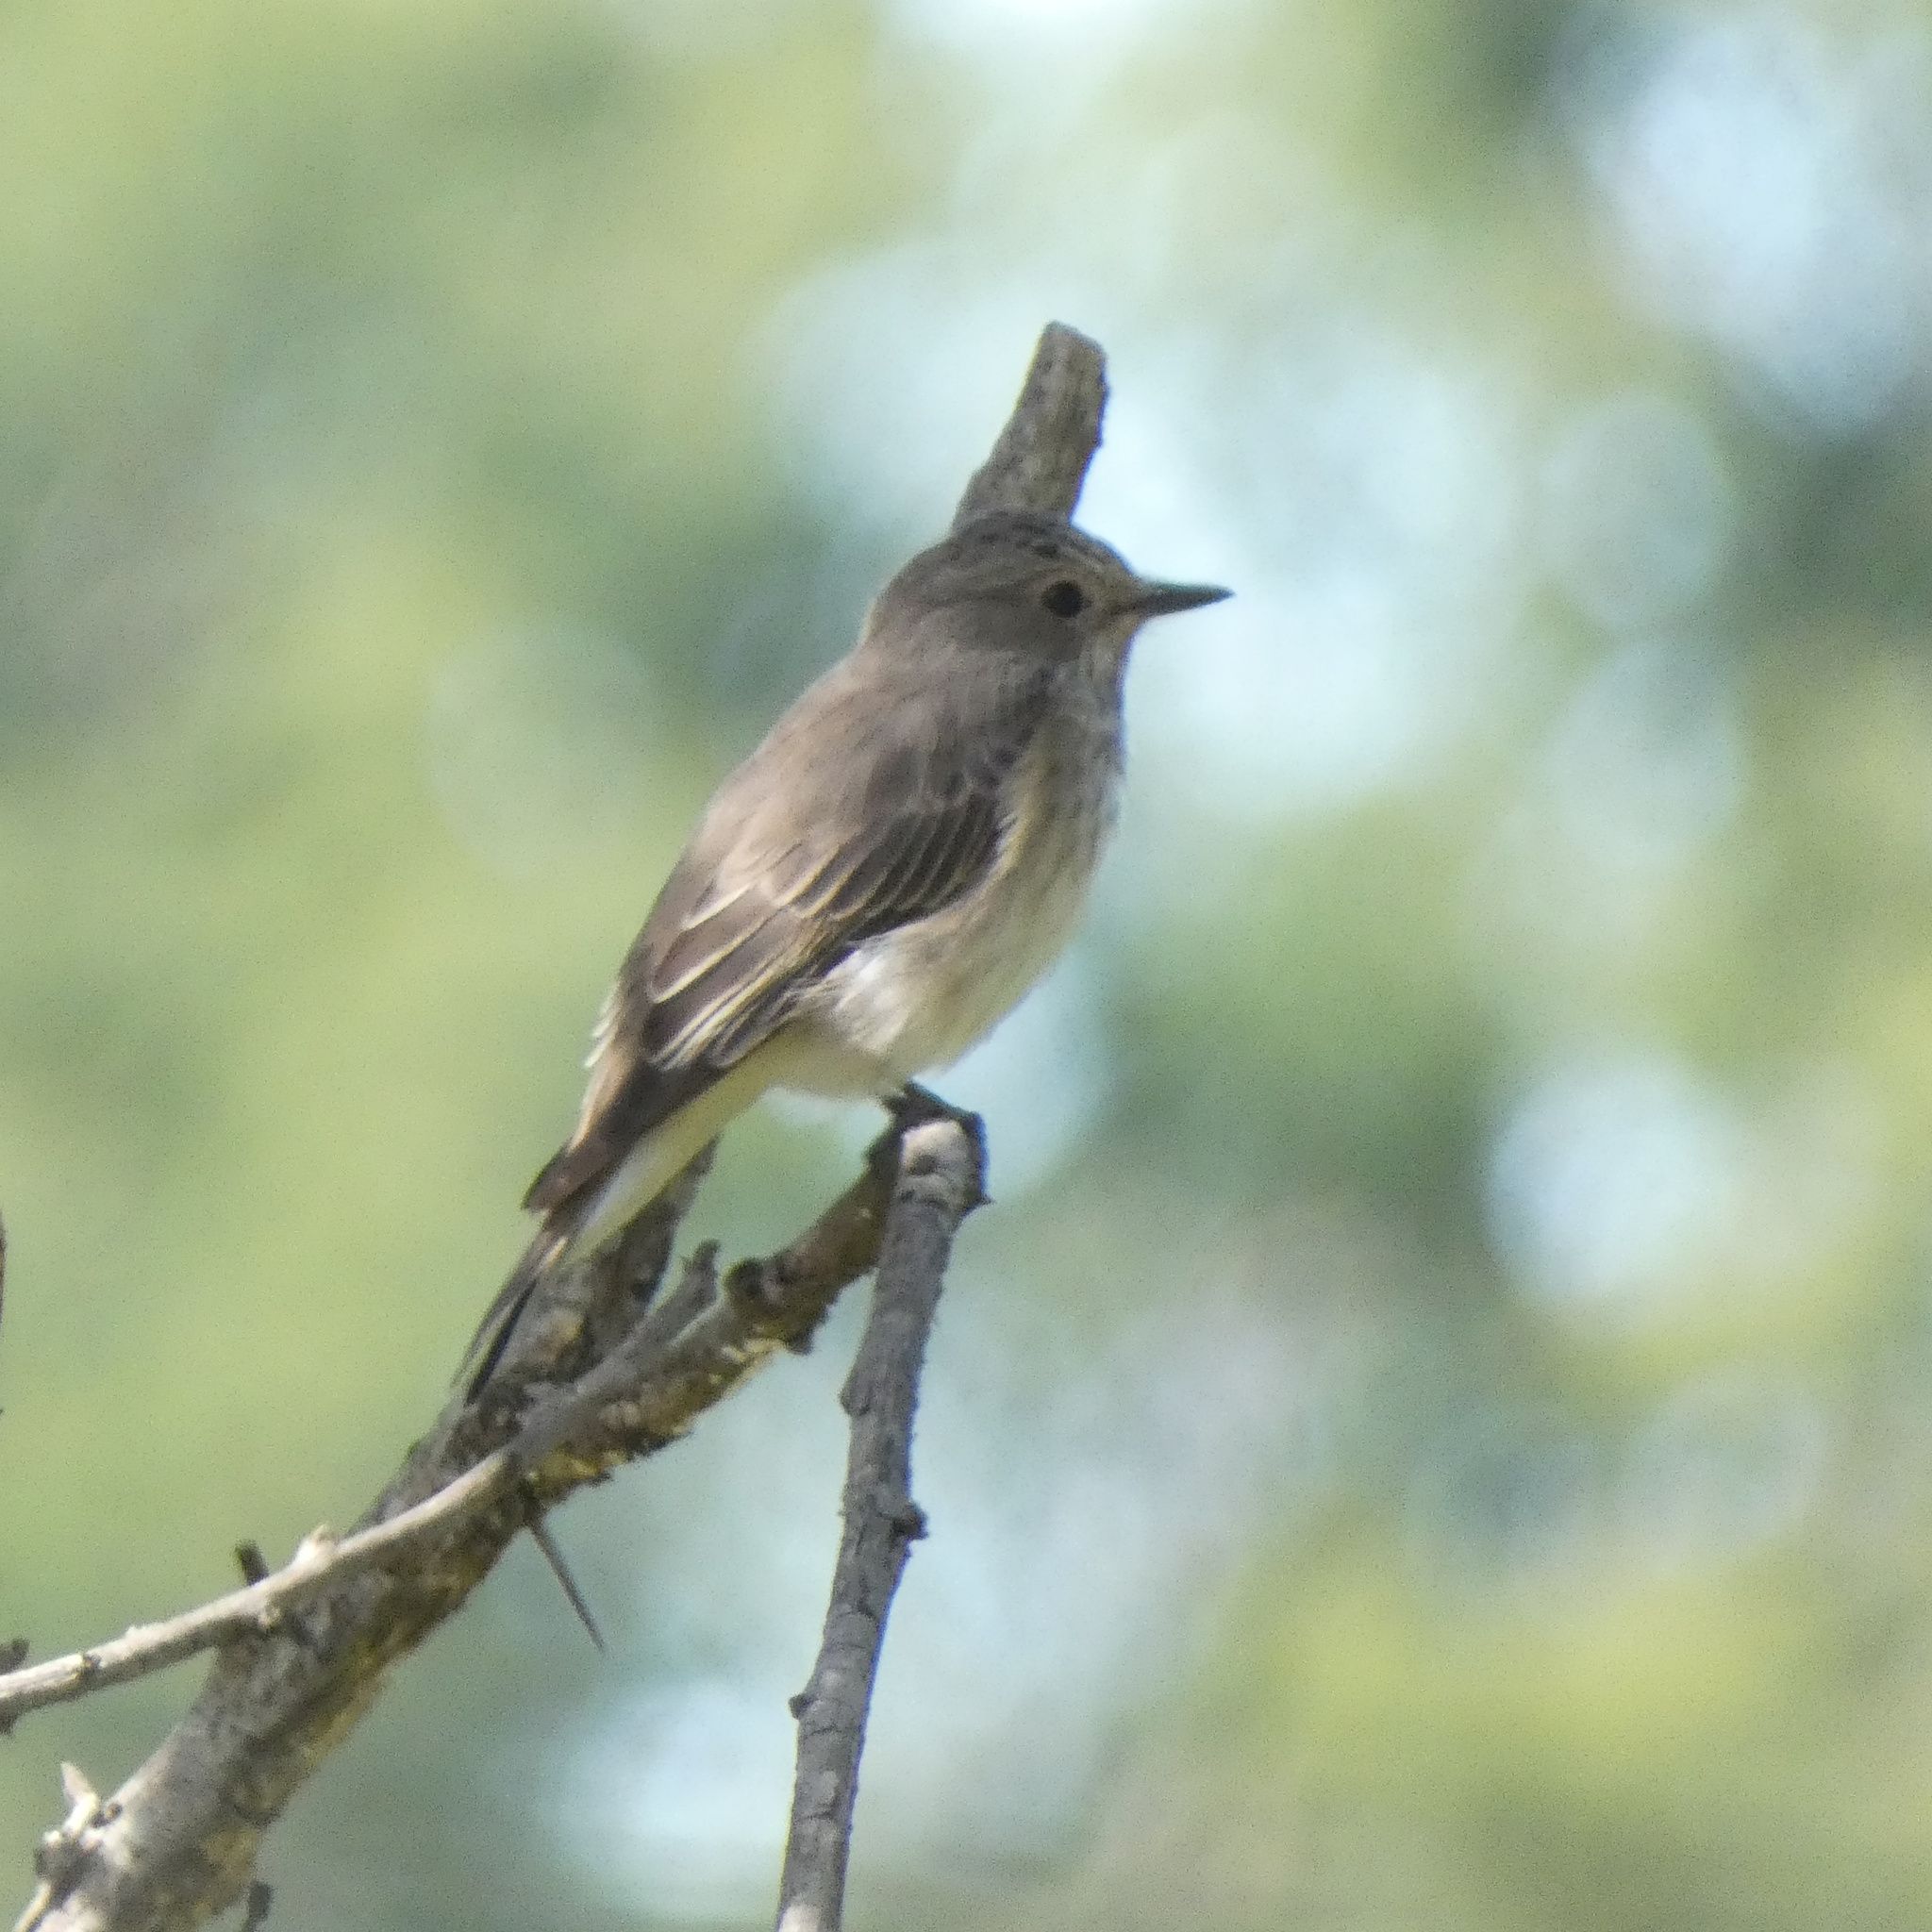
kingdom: Animalia
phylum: Chordata
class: Aves
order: Passeriformes
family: Muscicapidae
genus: Muscicapa
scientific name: Muscicapa striata
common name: Spotted flycatcher
